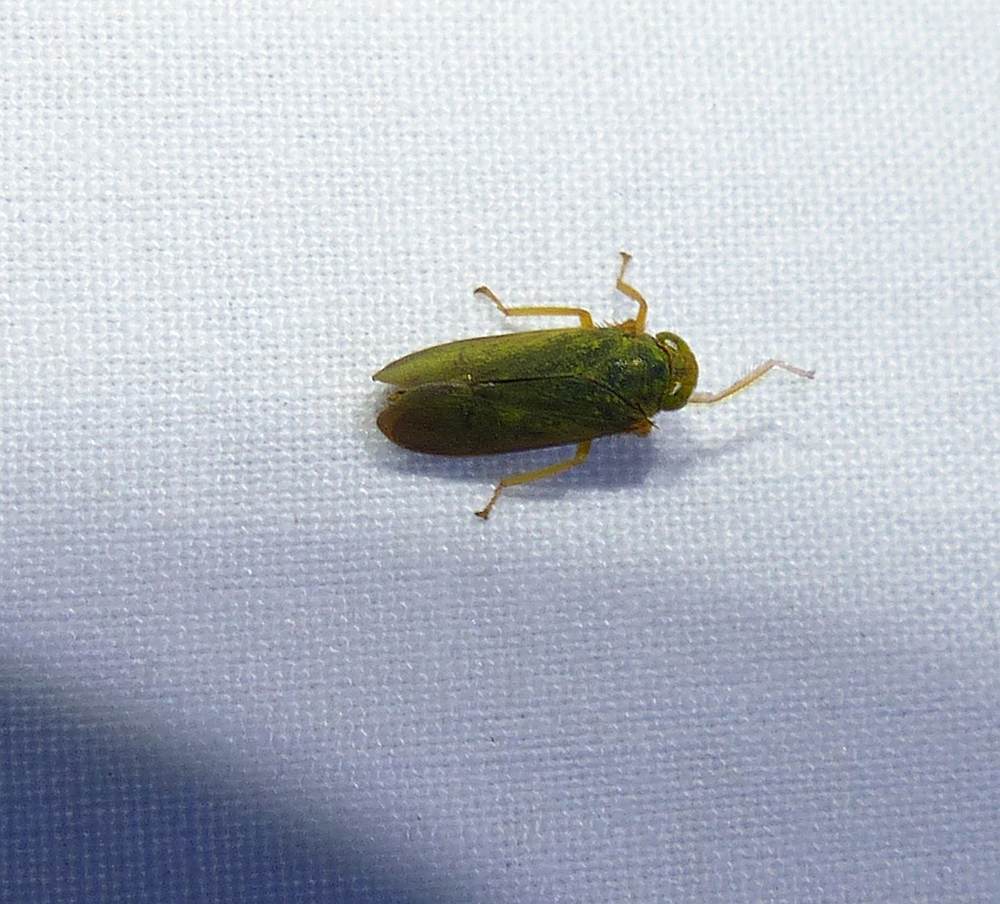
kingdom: Animalia
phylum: Arthropoda
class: Insecta
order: Hemiptera
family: Cicadellidae
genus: Jikradia
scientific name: Jikradia olitoria
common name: Coppery leafhopper
